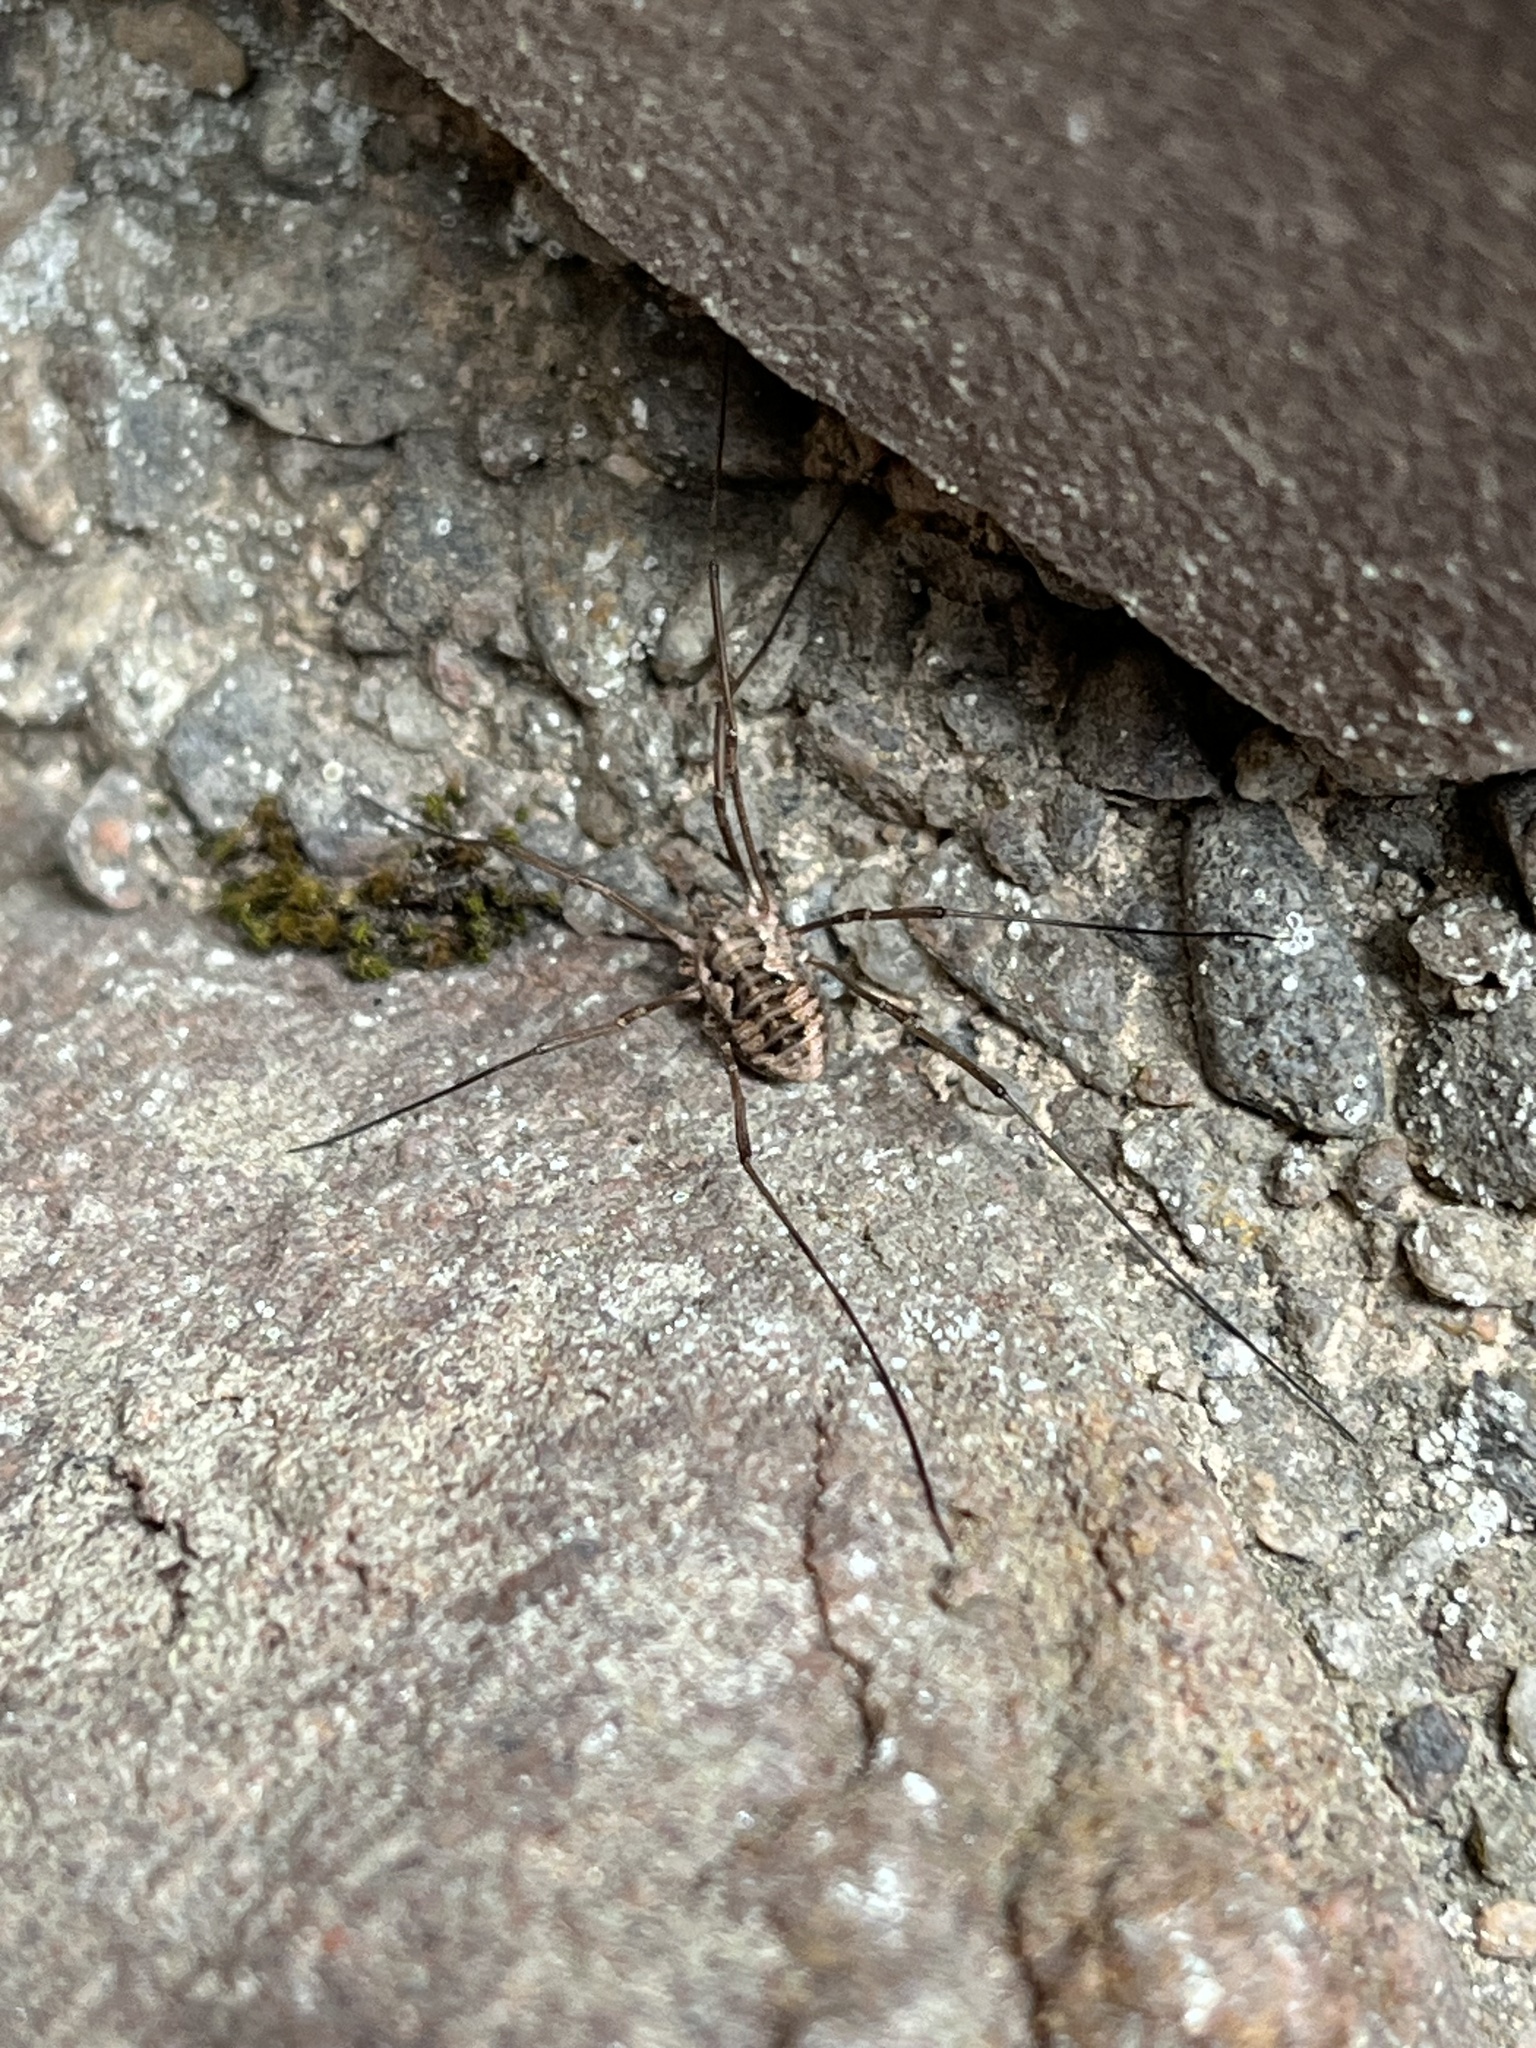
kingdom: Animalia
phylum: Arthropoda
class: Arachnida
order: Opiliones
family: Phalangiidae
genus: Phalangium
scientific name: Phalangium opilio
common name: Daddy longleg
